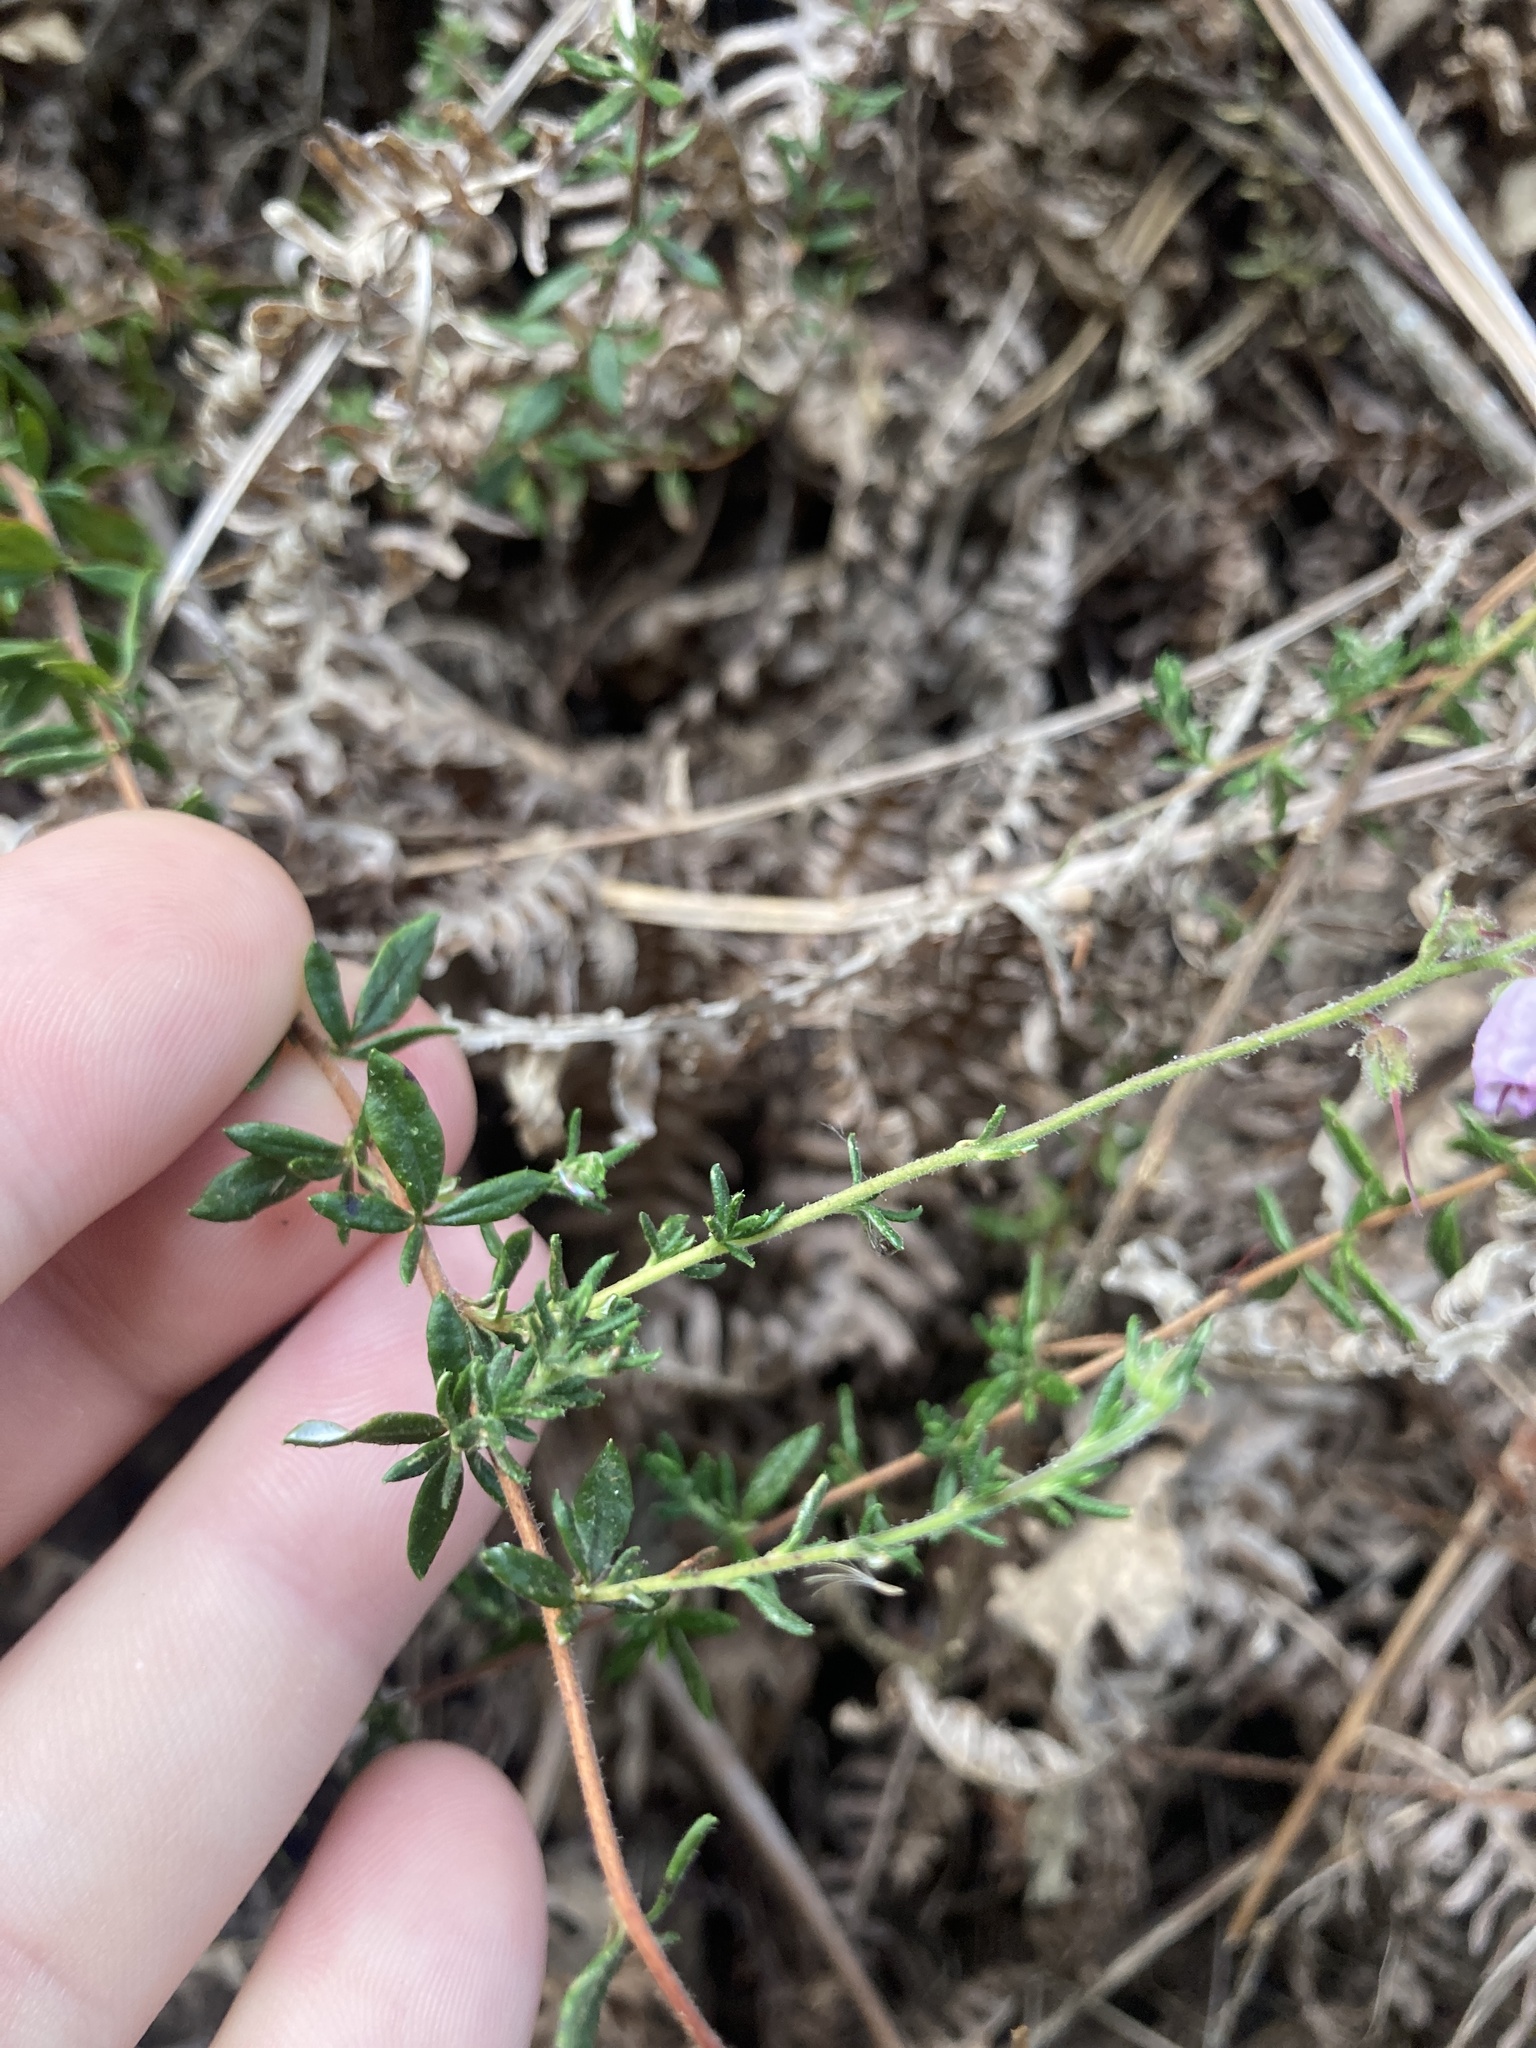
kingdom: Plantae
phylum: Tracheophyta
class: Magnoliopsida
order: Ericales
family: Ericaceae
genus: Daboecia
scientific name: Daboecia cantabrica
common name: St. dabeoc's-heath
